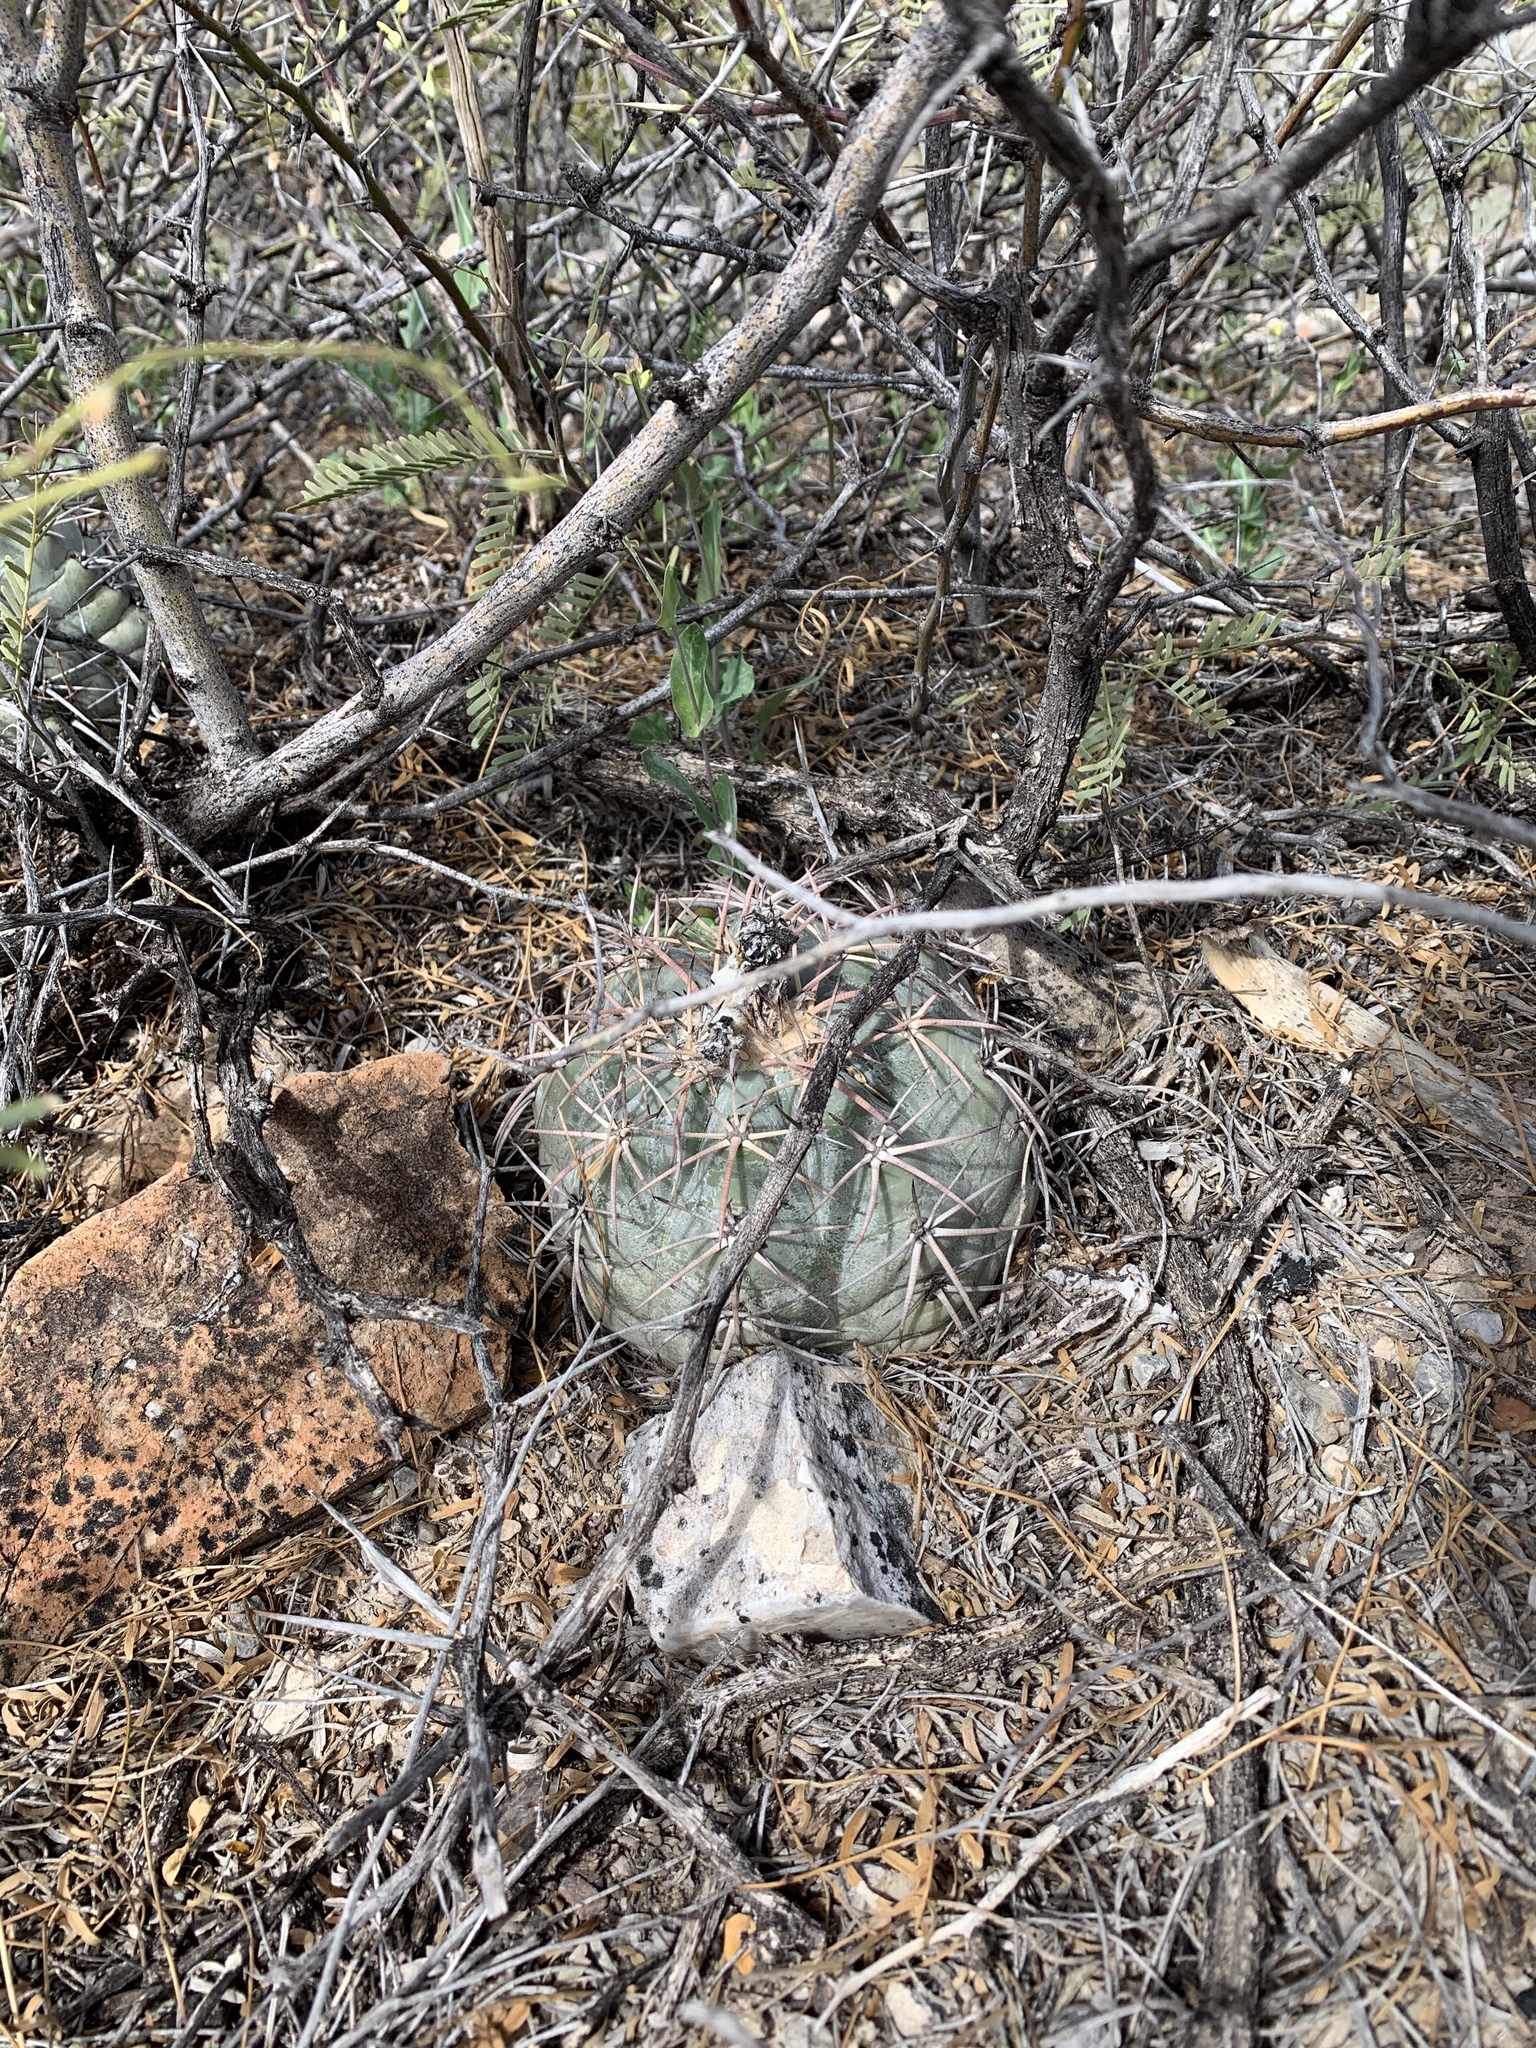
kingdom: Plantae
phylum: Tracheophyta
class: Magnoliopsida
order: Caryophyllales
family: Cactaceae
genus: Echinocactus
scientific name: Echinocactus horizonthalonius
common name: Devilshead
